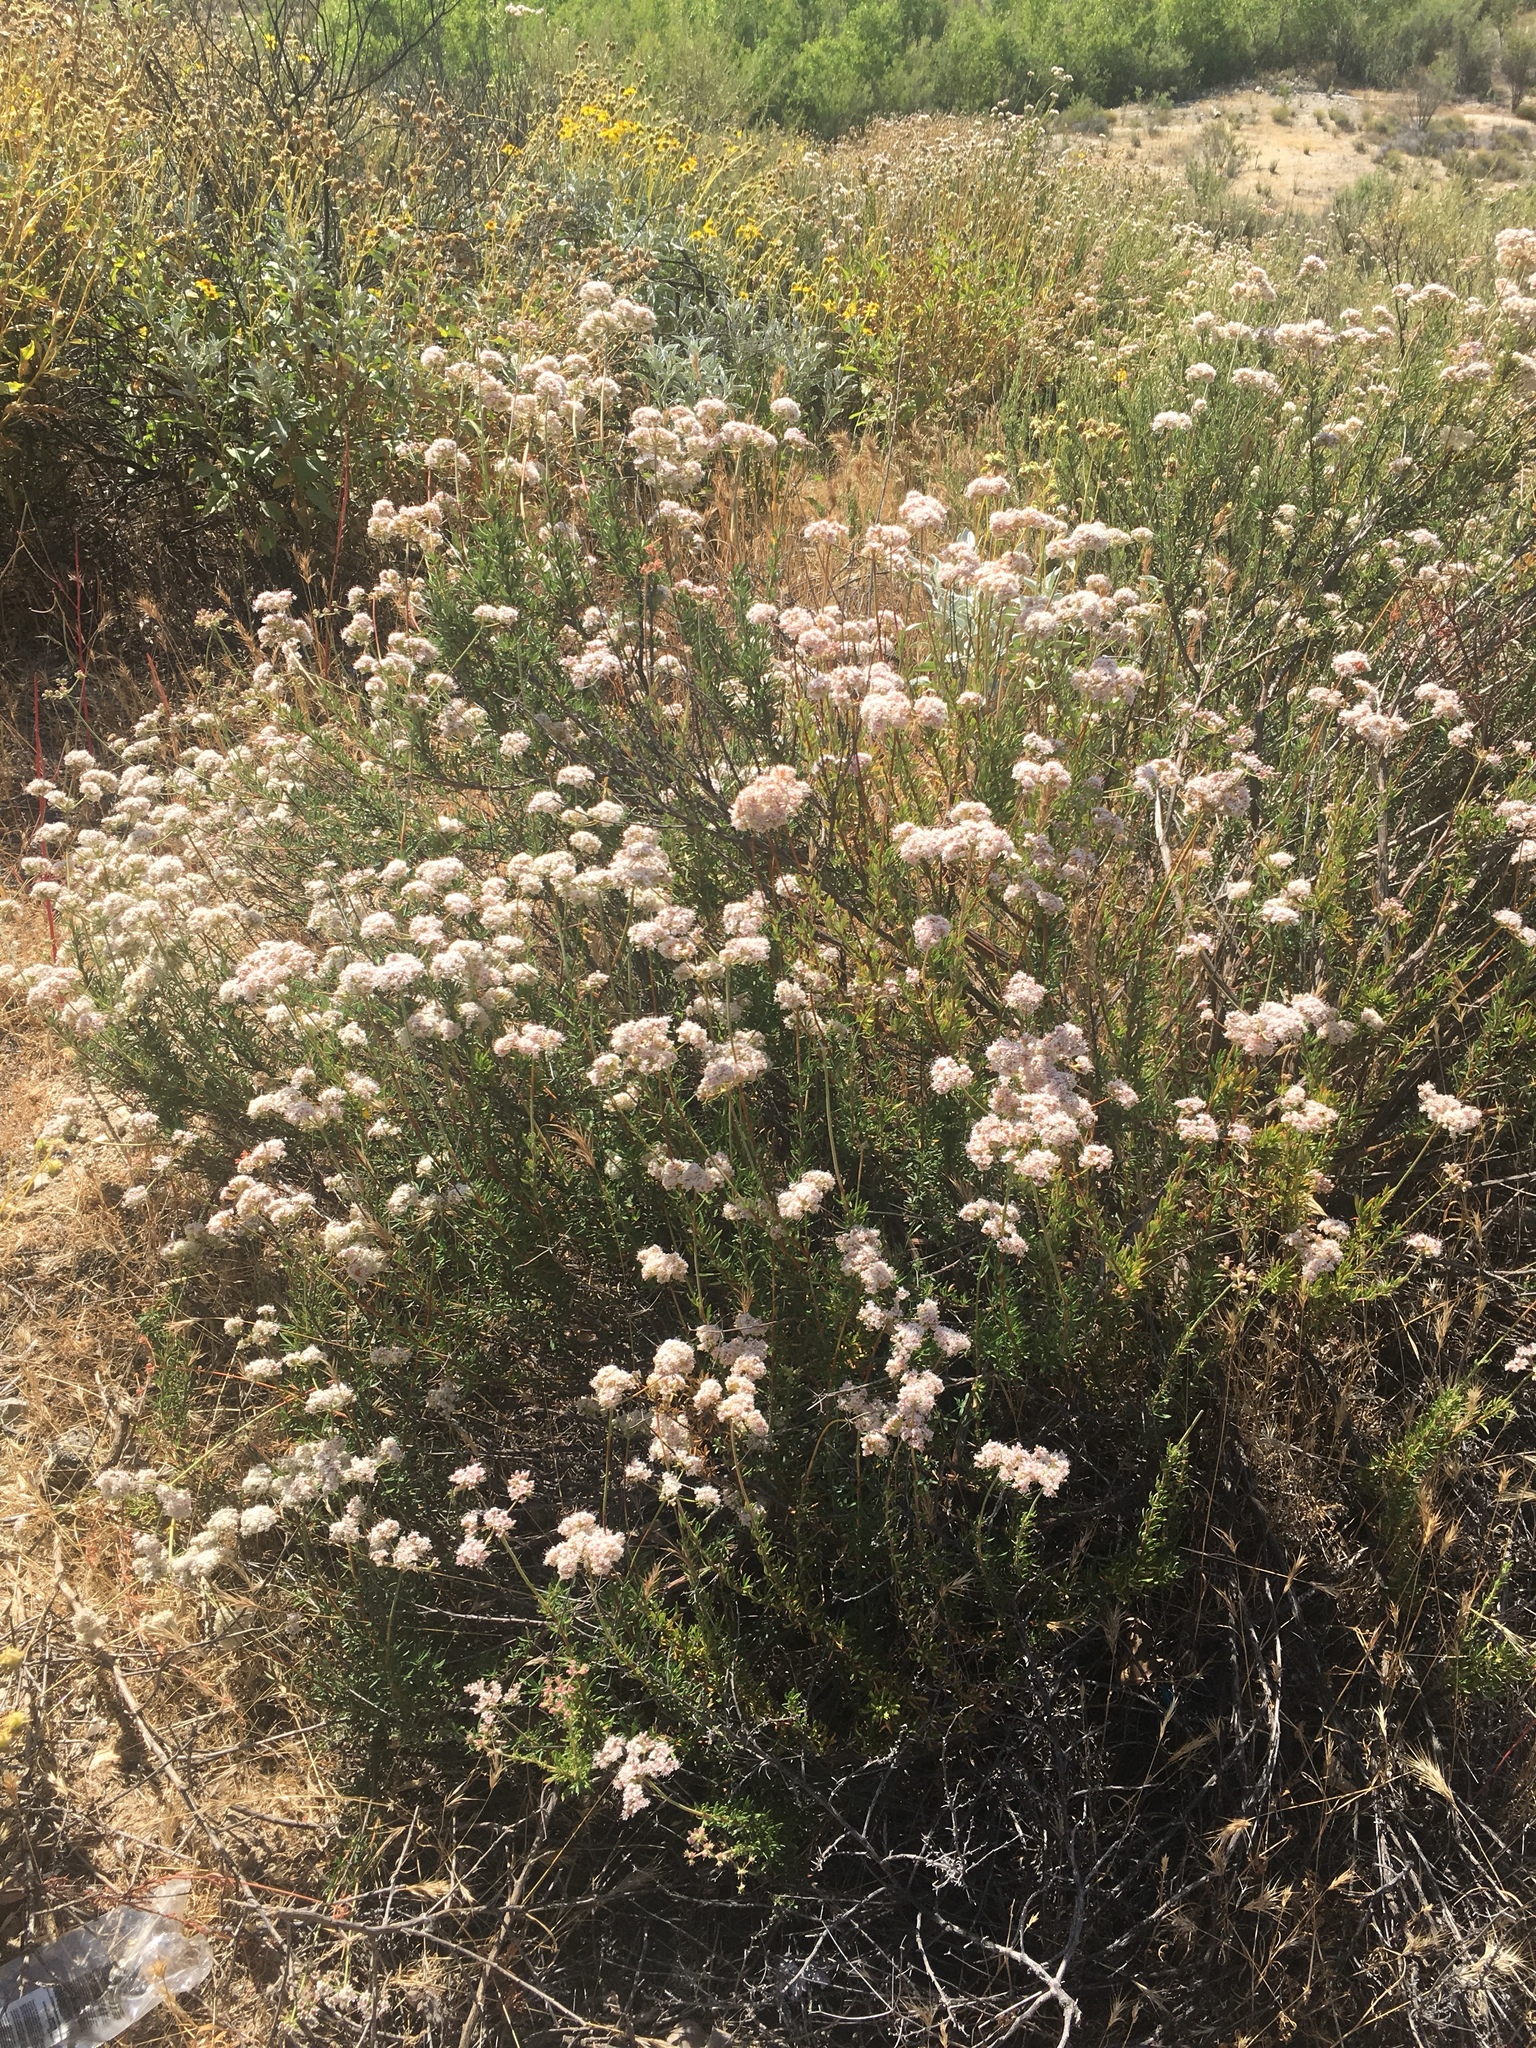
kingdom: Plantae
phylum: Tracheophyta
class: Magnoliopsida
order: Caryophyllales
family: Polygonaceae
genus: Eriogonum
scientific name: Eriogonum fasciculatum
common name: California wild buckwheat
